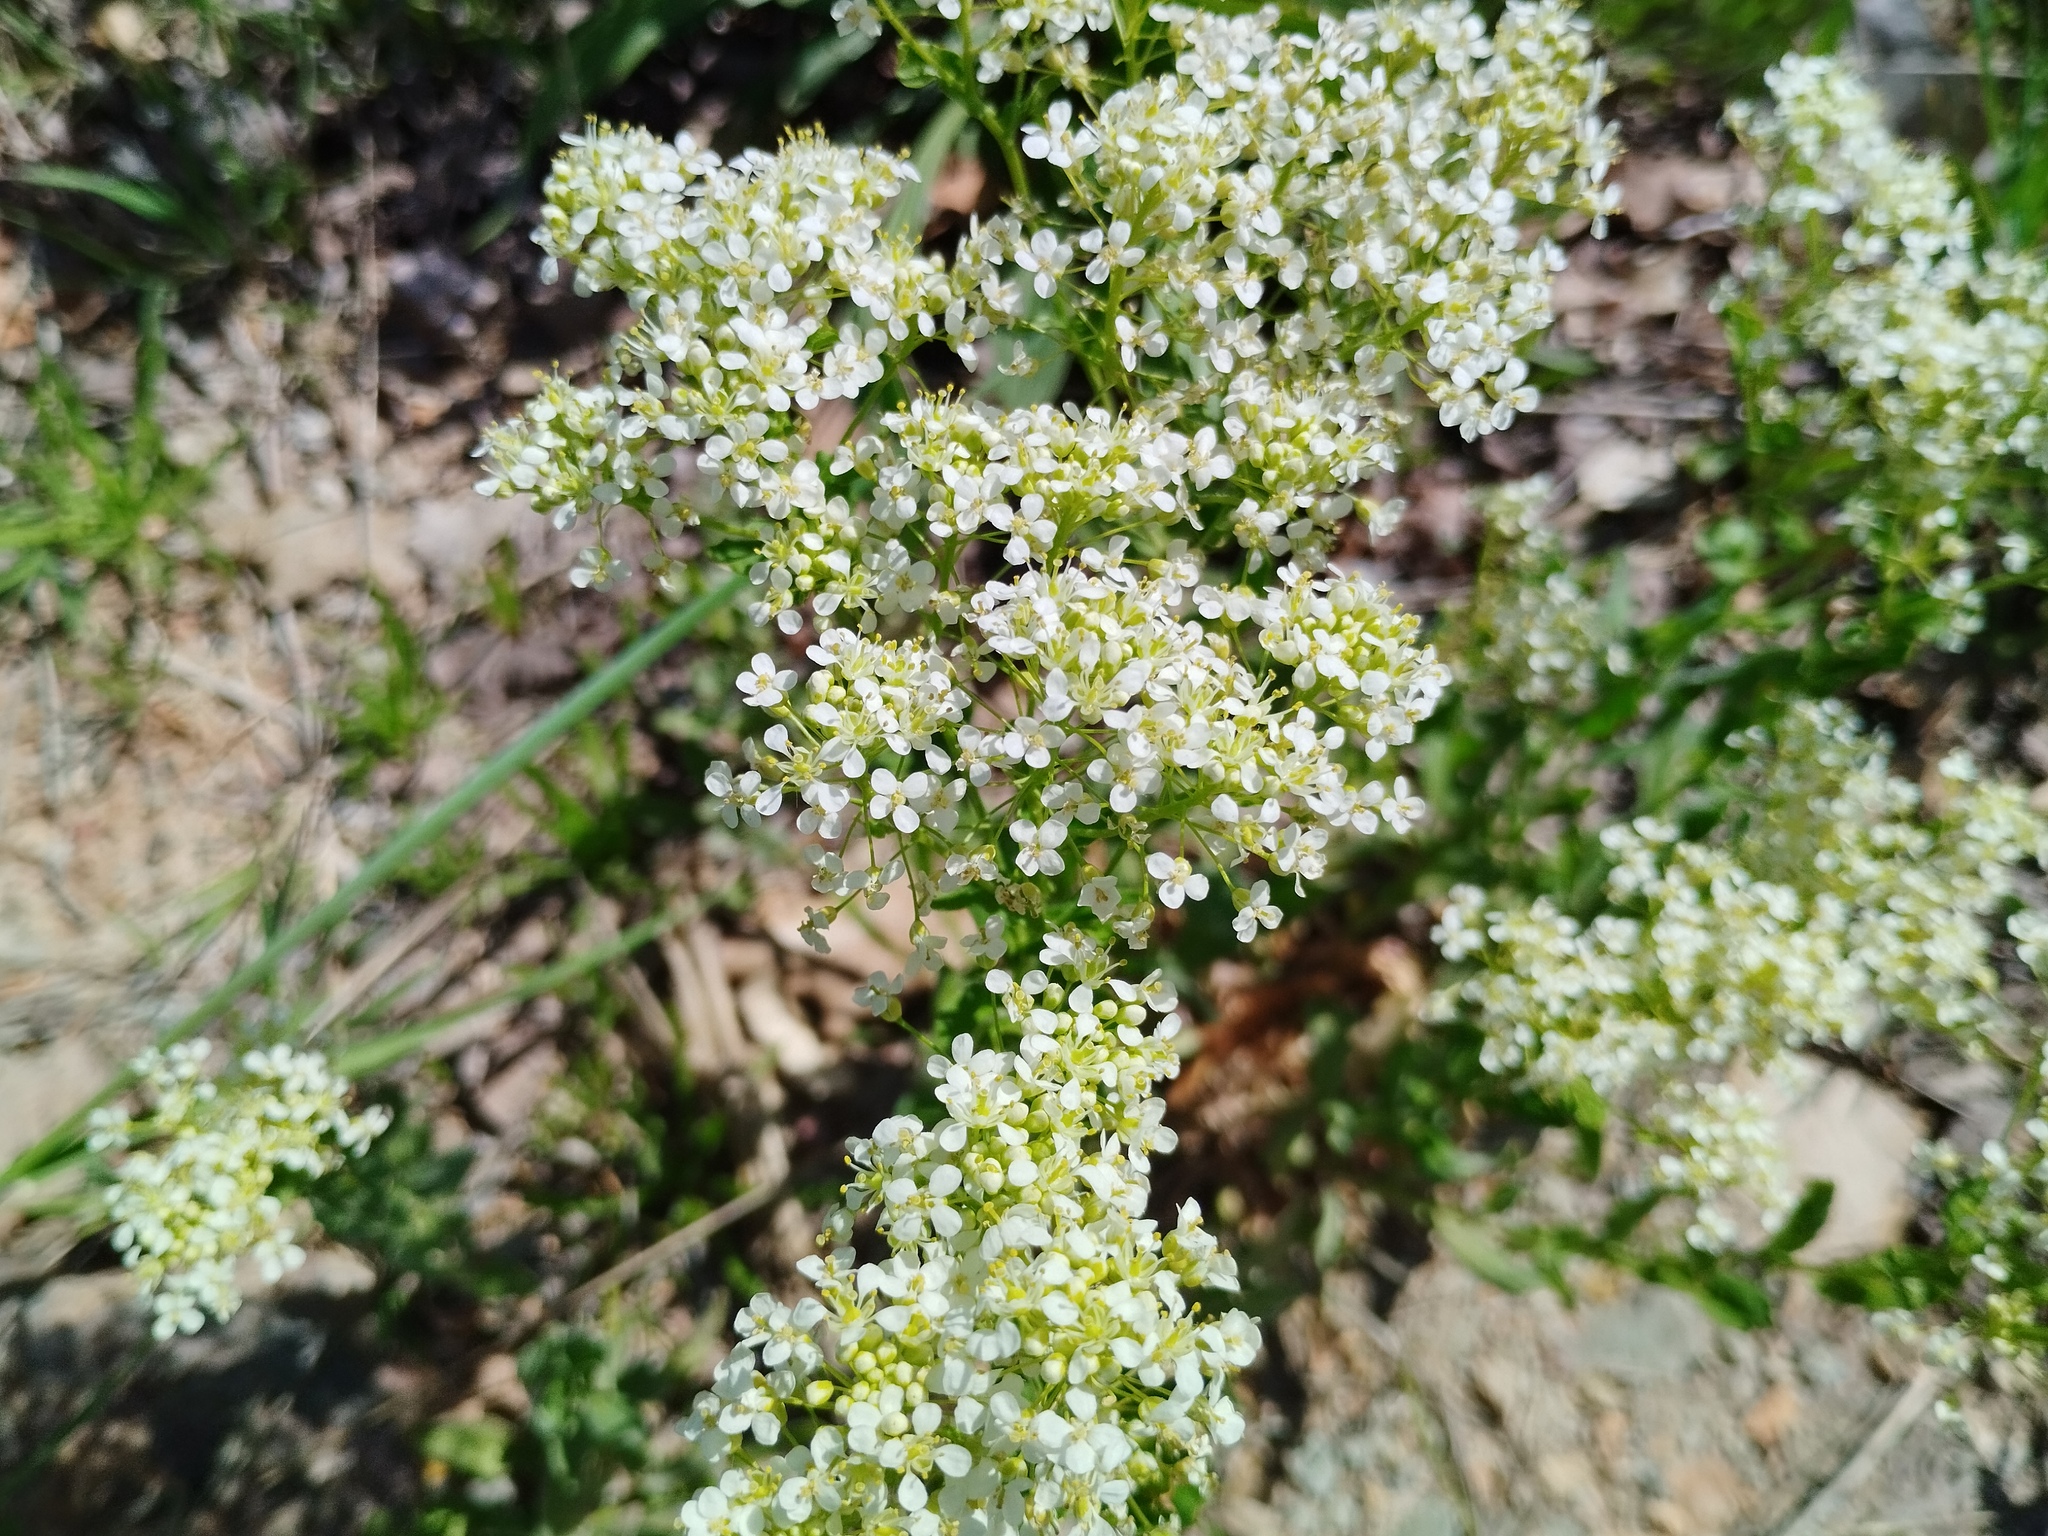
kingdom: Plantae
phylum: Tracheophyta
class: Magnoliopsida
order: Brassicales
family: Brassicaceae
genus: Lepidium
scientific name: Lepidium draba
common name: Hoary cress
